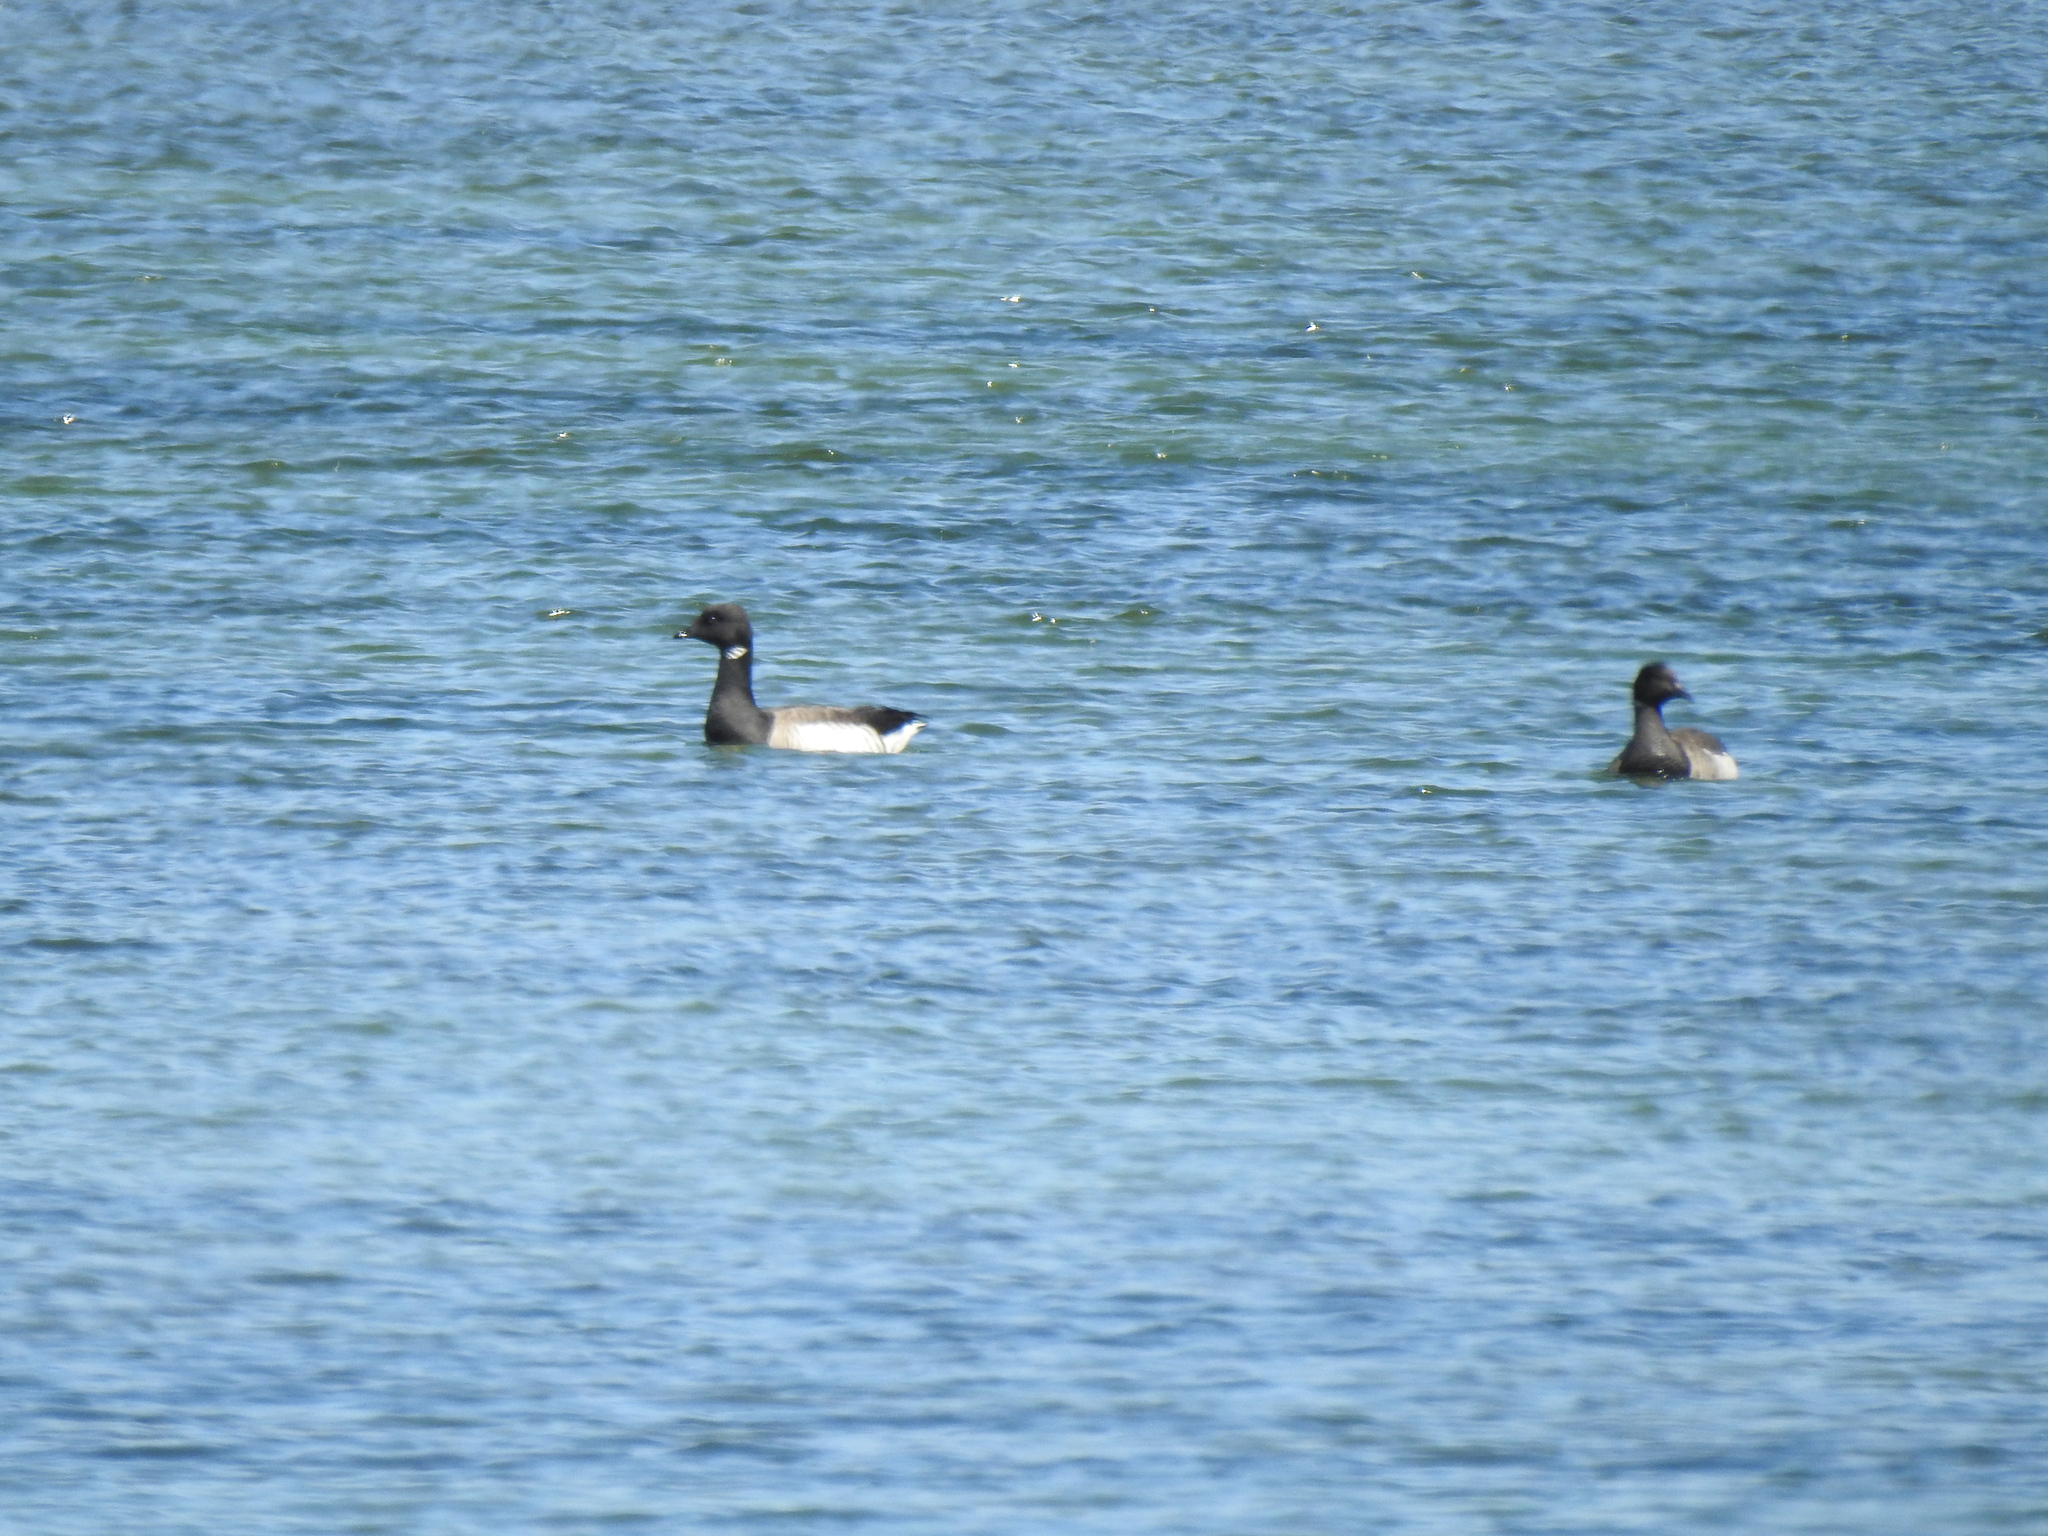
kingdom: Animalia
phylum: Chordata
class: Aves
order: Anseriformes
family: Anatidae
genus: Branta
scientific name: Branta bernicla
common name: Brant goose
